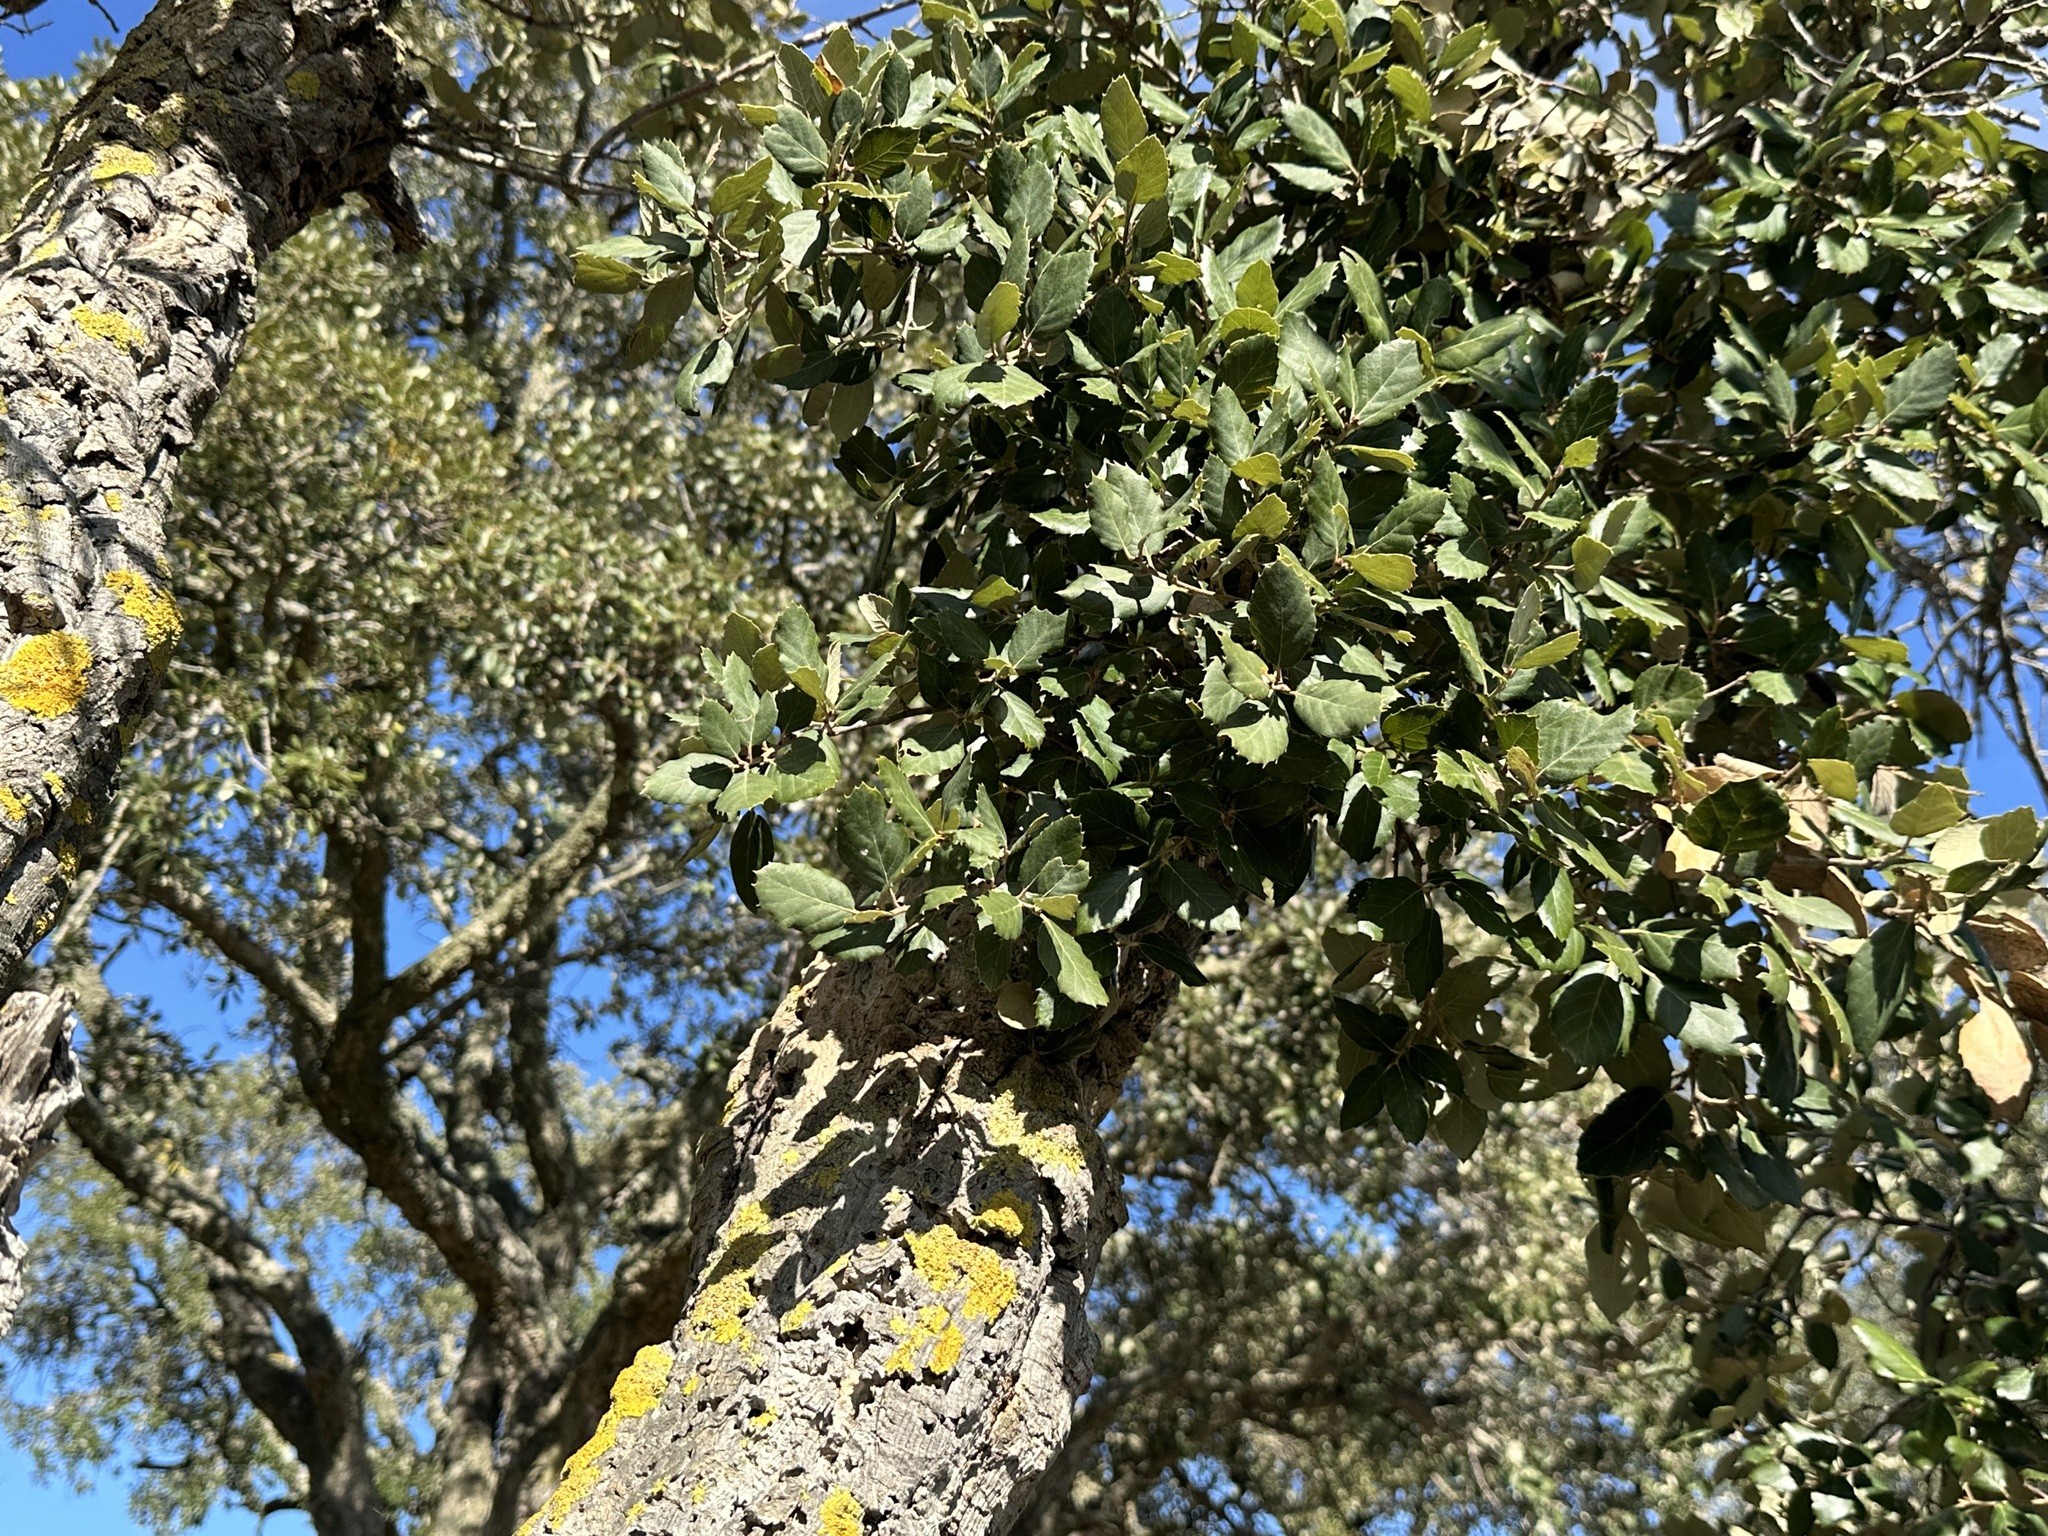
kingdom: Plantae
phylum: Tracheophyta
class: Magnoliopsida
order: Fagales
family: Fagaceae
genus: Quercus
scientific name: Quercus suber
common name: Cork oak
